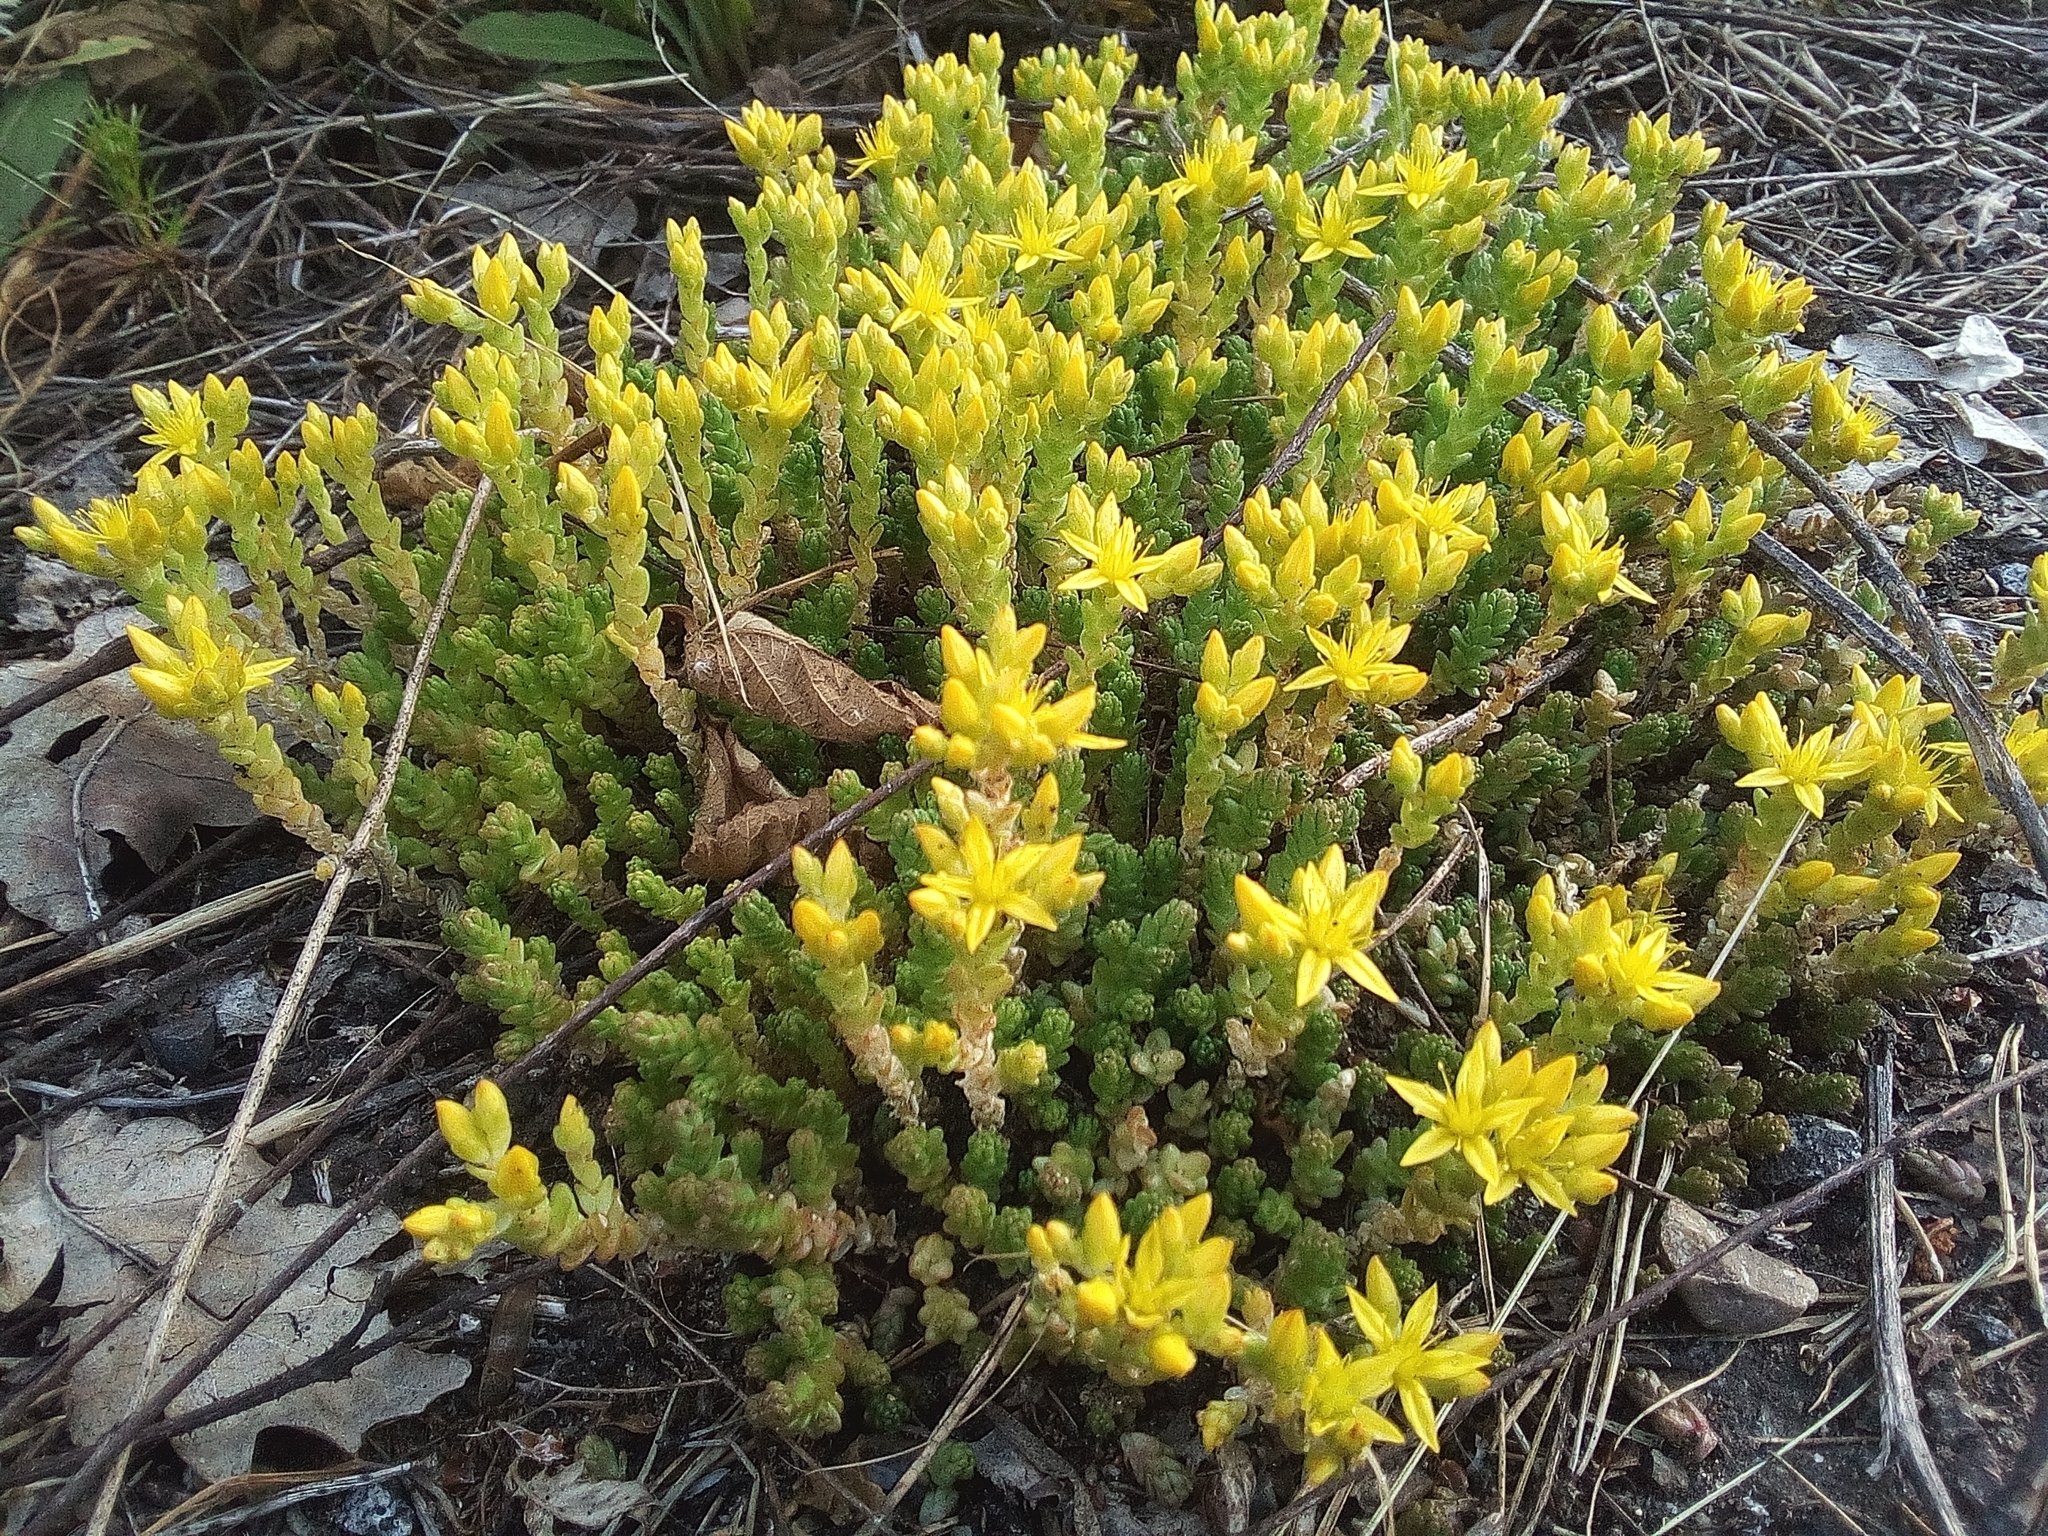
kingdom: Plantae
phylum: Tracheophyta
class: Magnoliopsida
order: Saxifragales
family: Crassulaceae
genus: Sedum
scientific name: Sedum acre
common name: Biting stonecrop
